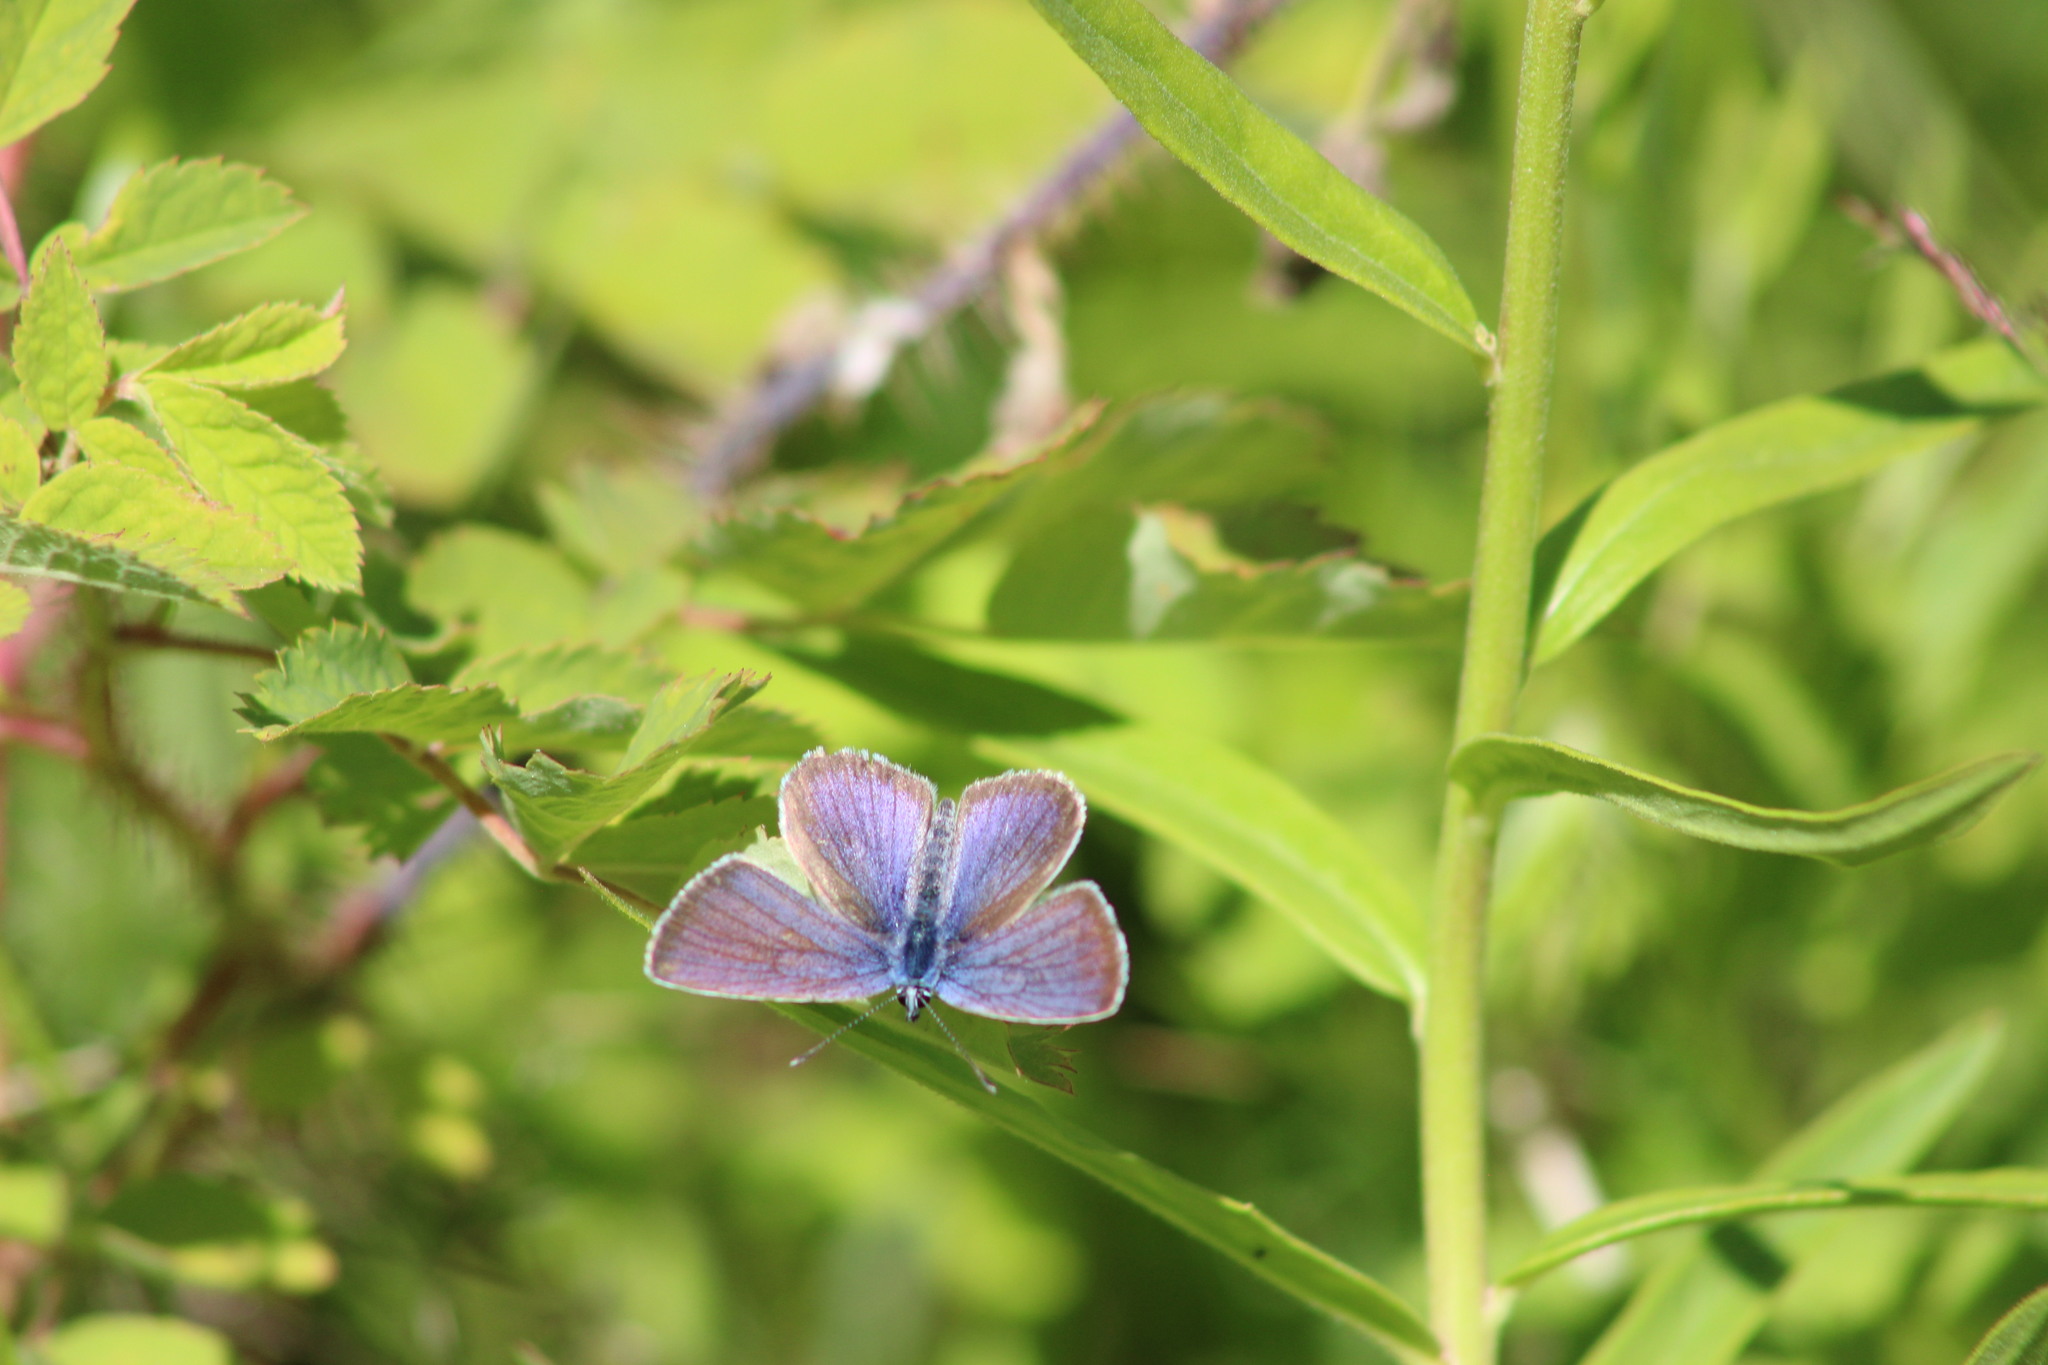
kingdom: Animalia
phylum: Arthropoda
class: Insecta
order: Lepidoptera
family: Lycaenidae
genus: Cyaniris
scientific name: Cyaniris semiargus
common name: Mazarine blue
